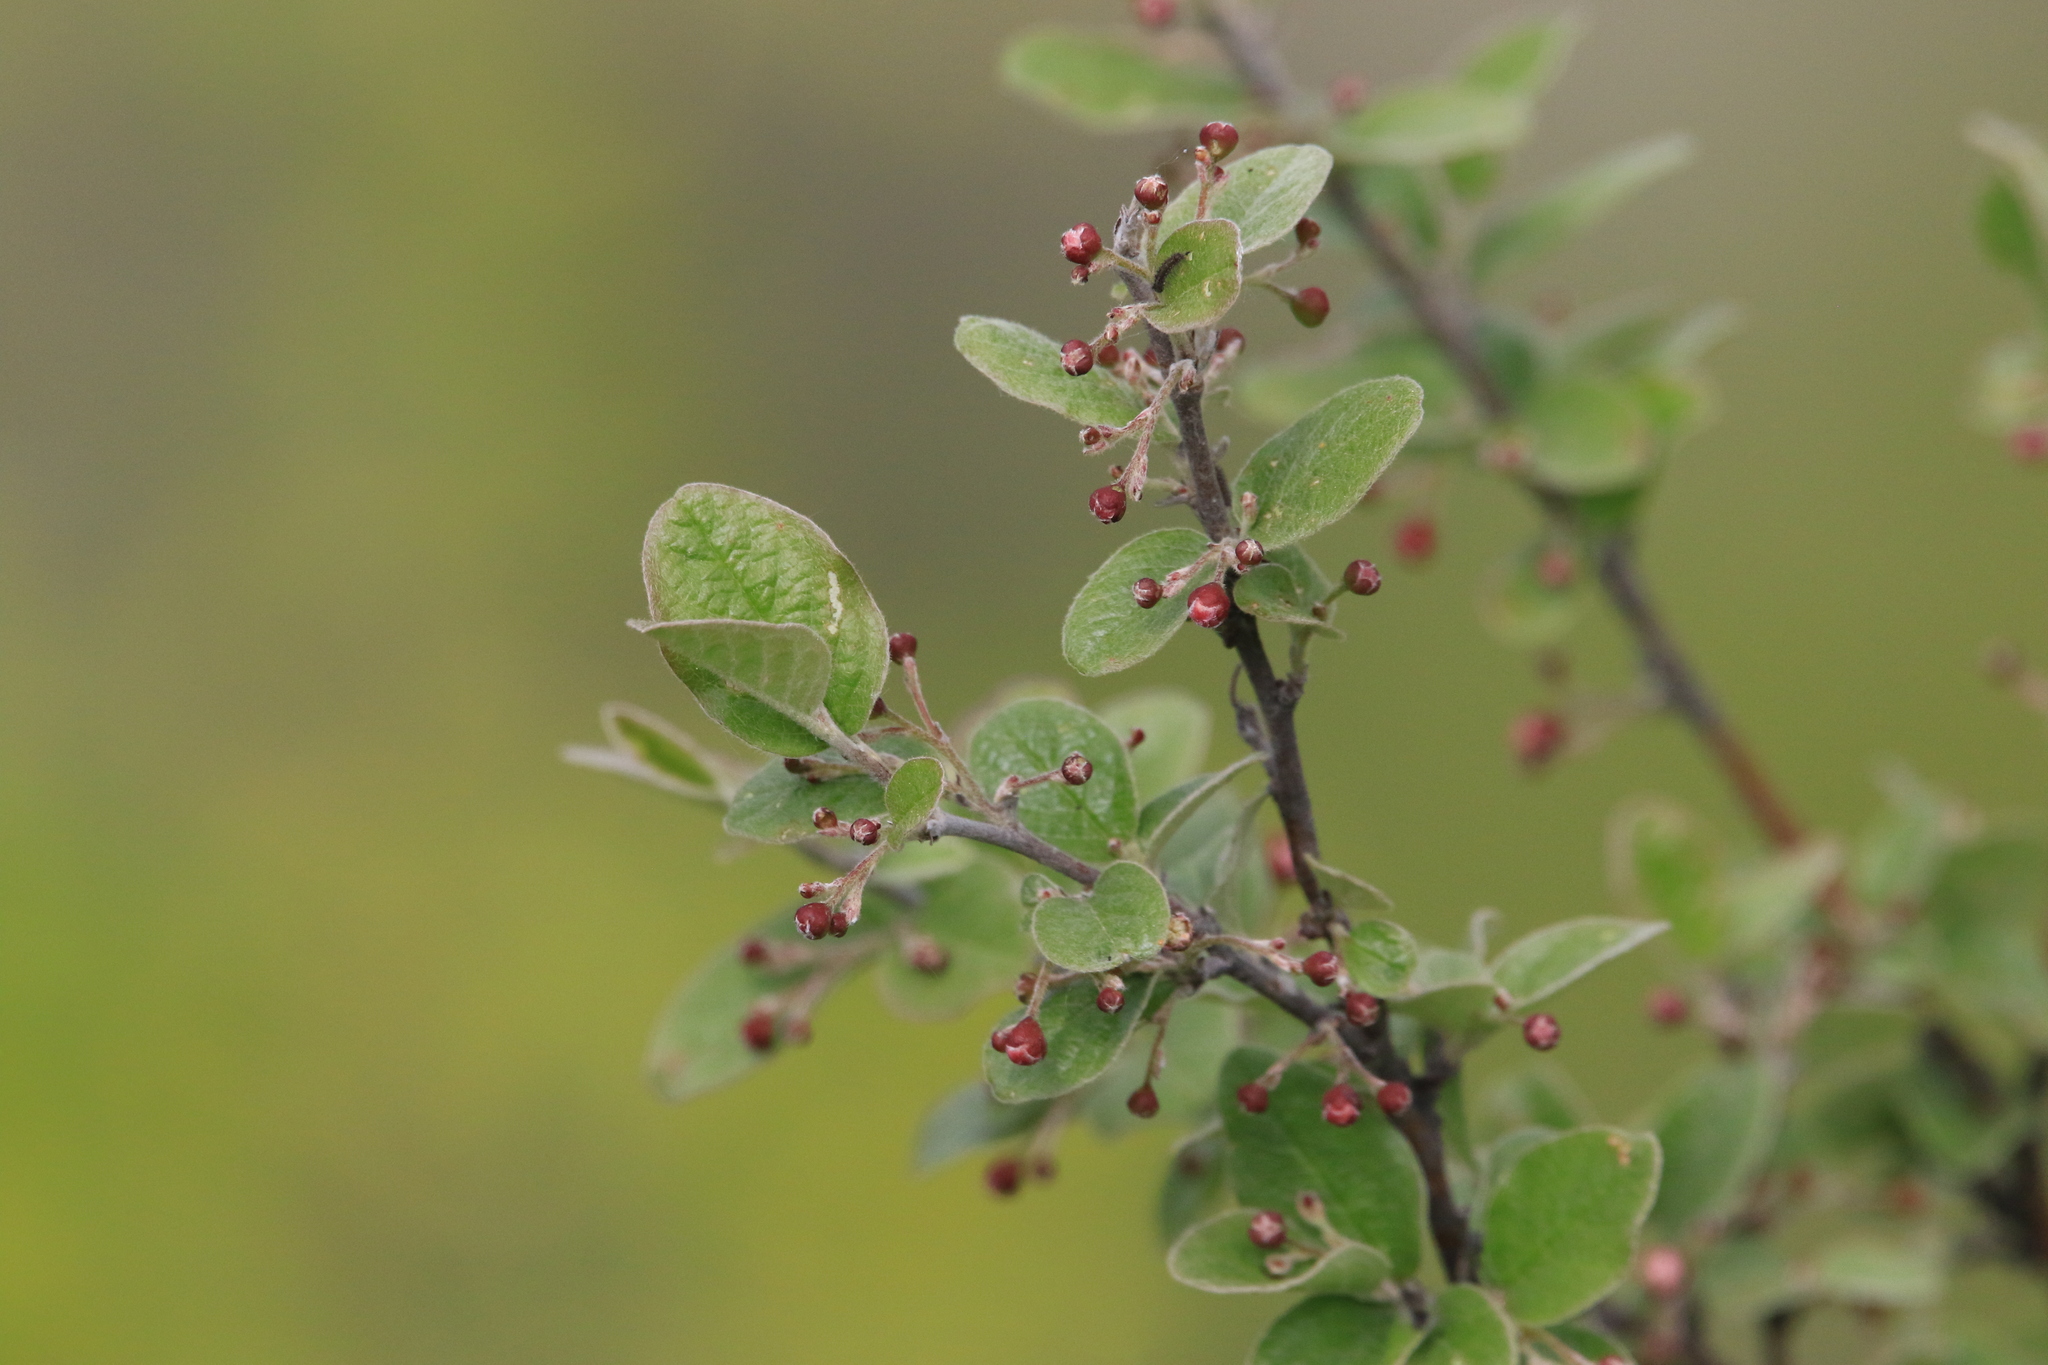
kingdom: Plantae
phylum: Tracheophyta
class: Magnoliopsida
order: Rosales
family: Rosaceae
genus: Cotoneaster
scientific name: Cotoneaster melanocarpus
